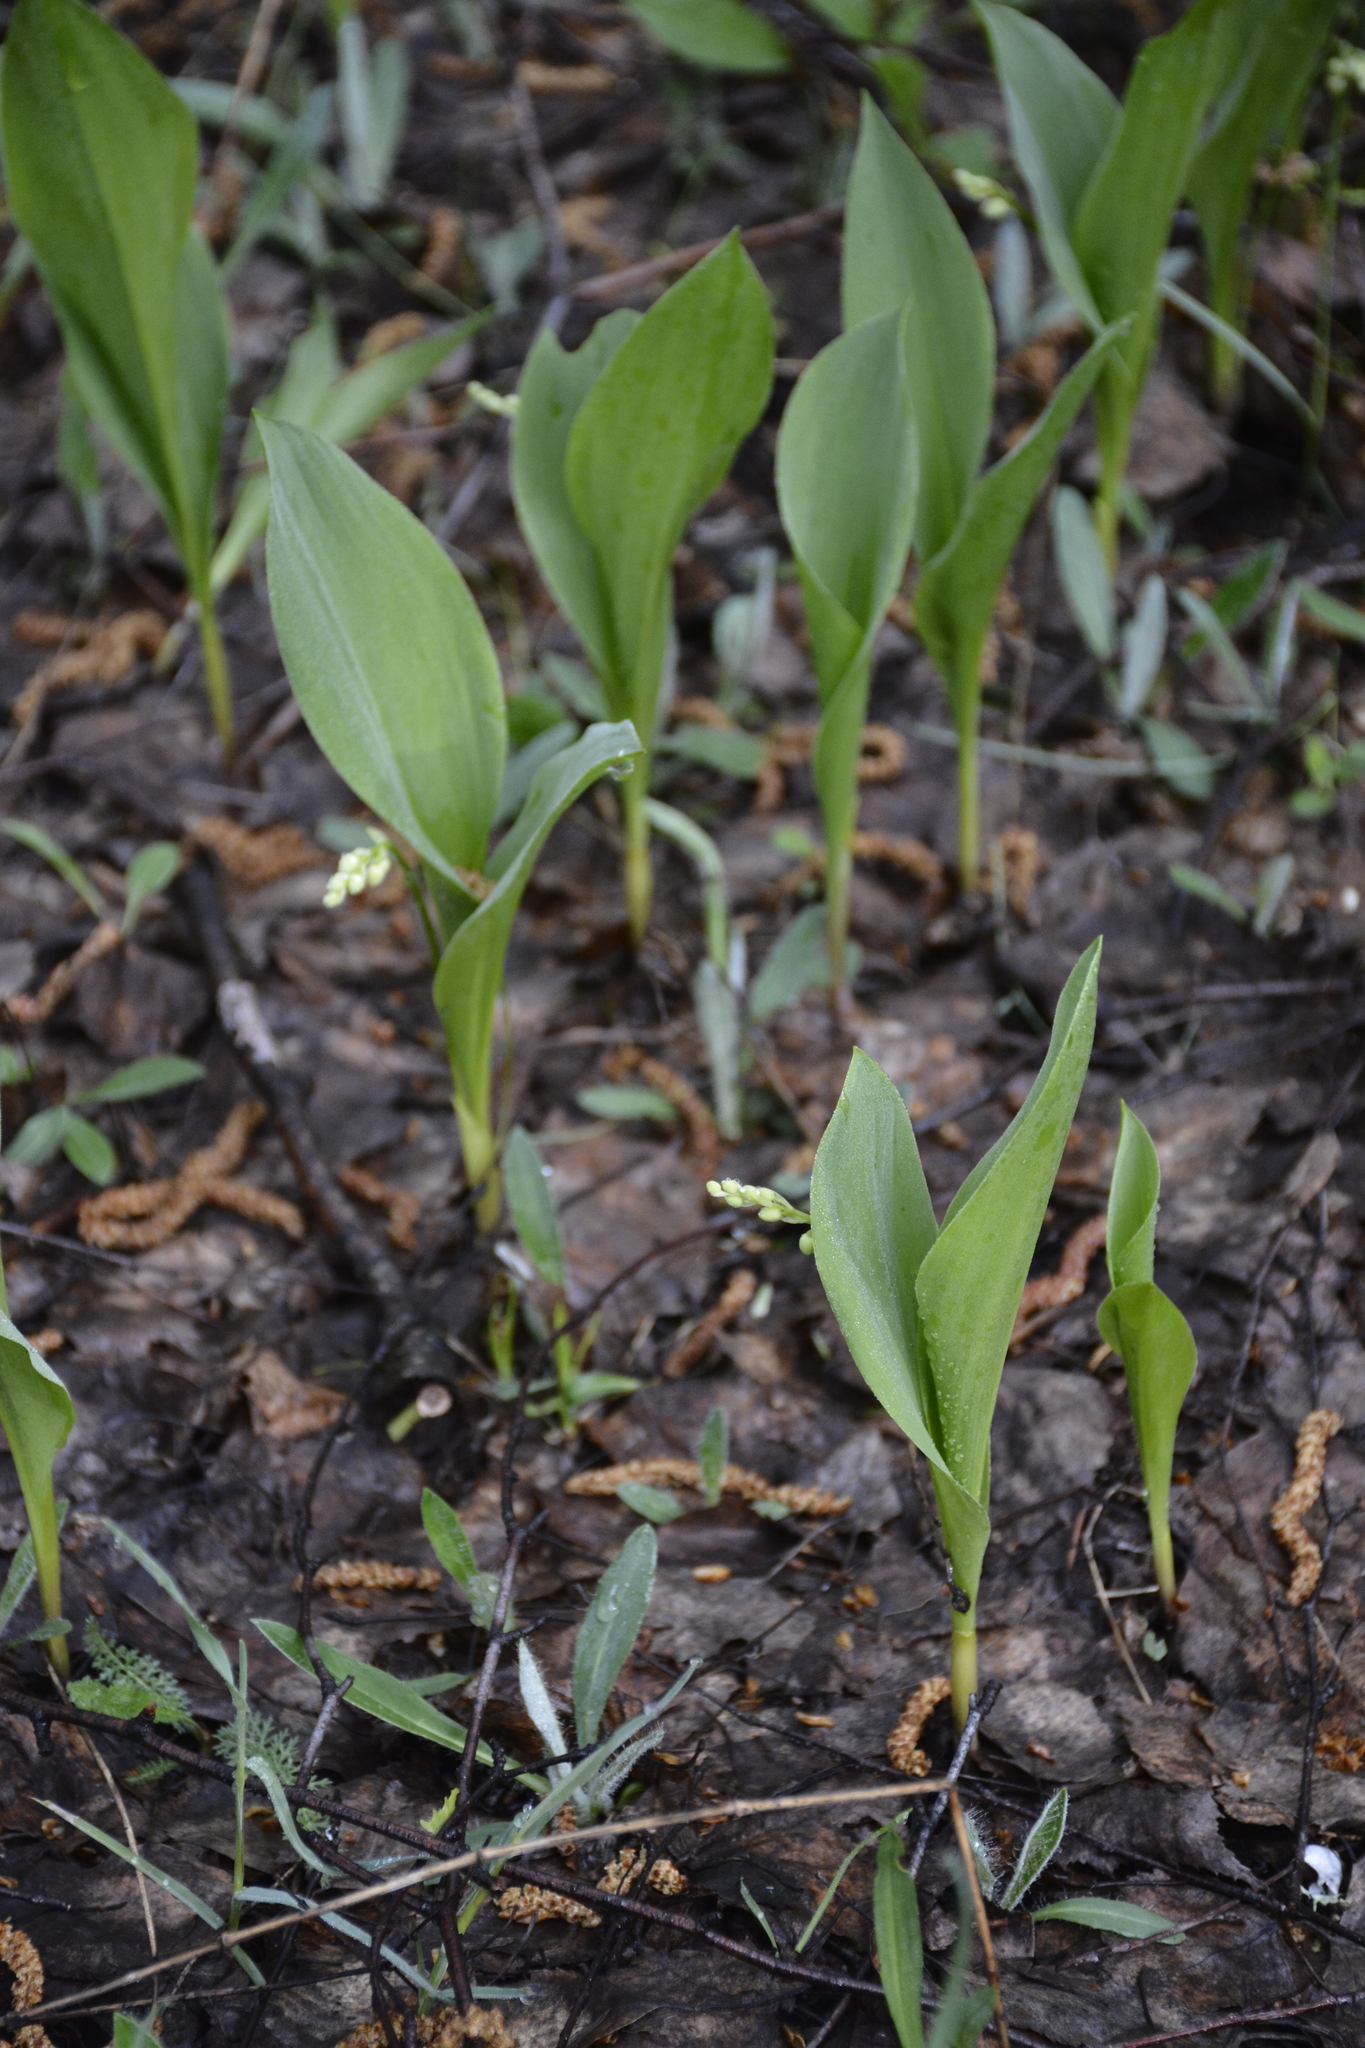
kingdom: Plantae
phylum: Tracheophyta
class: Liliopsida
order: Asparagales
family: Asparagaceae
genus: Convallaria
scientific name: Convallaria majalis
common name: Lily-of-the-valley
